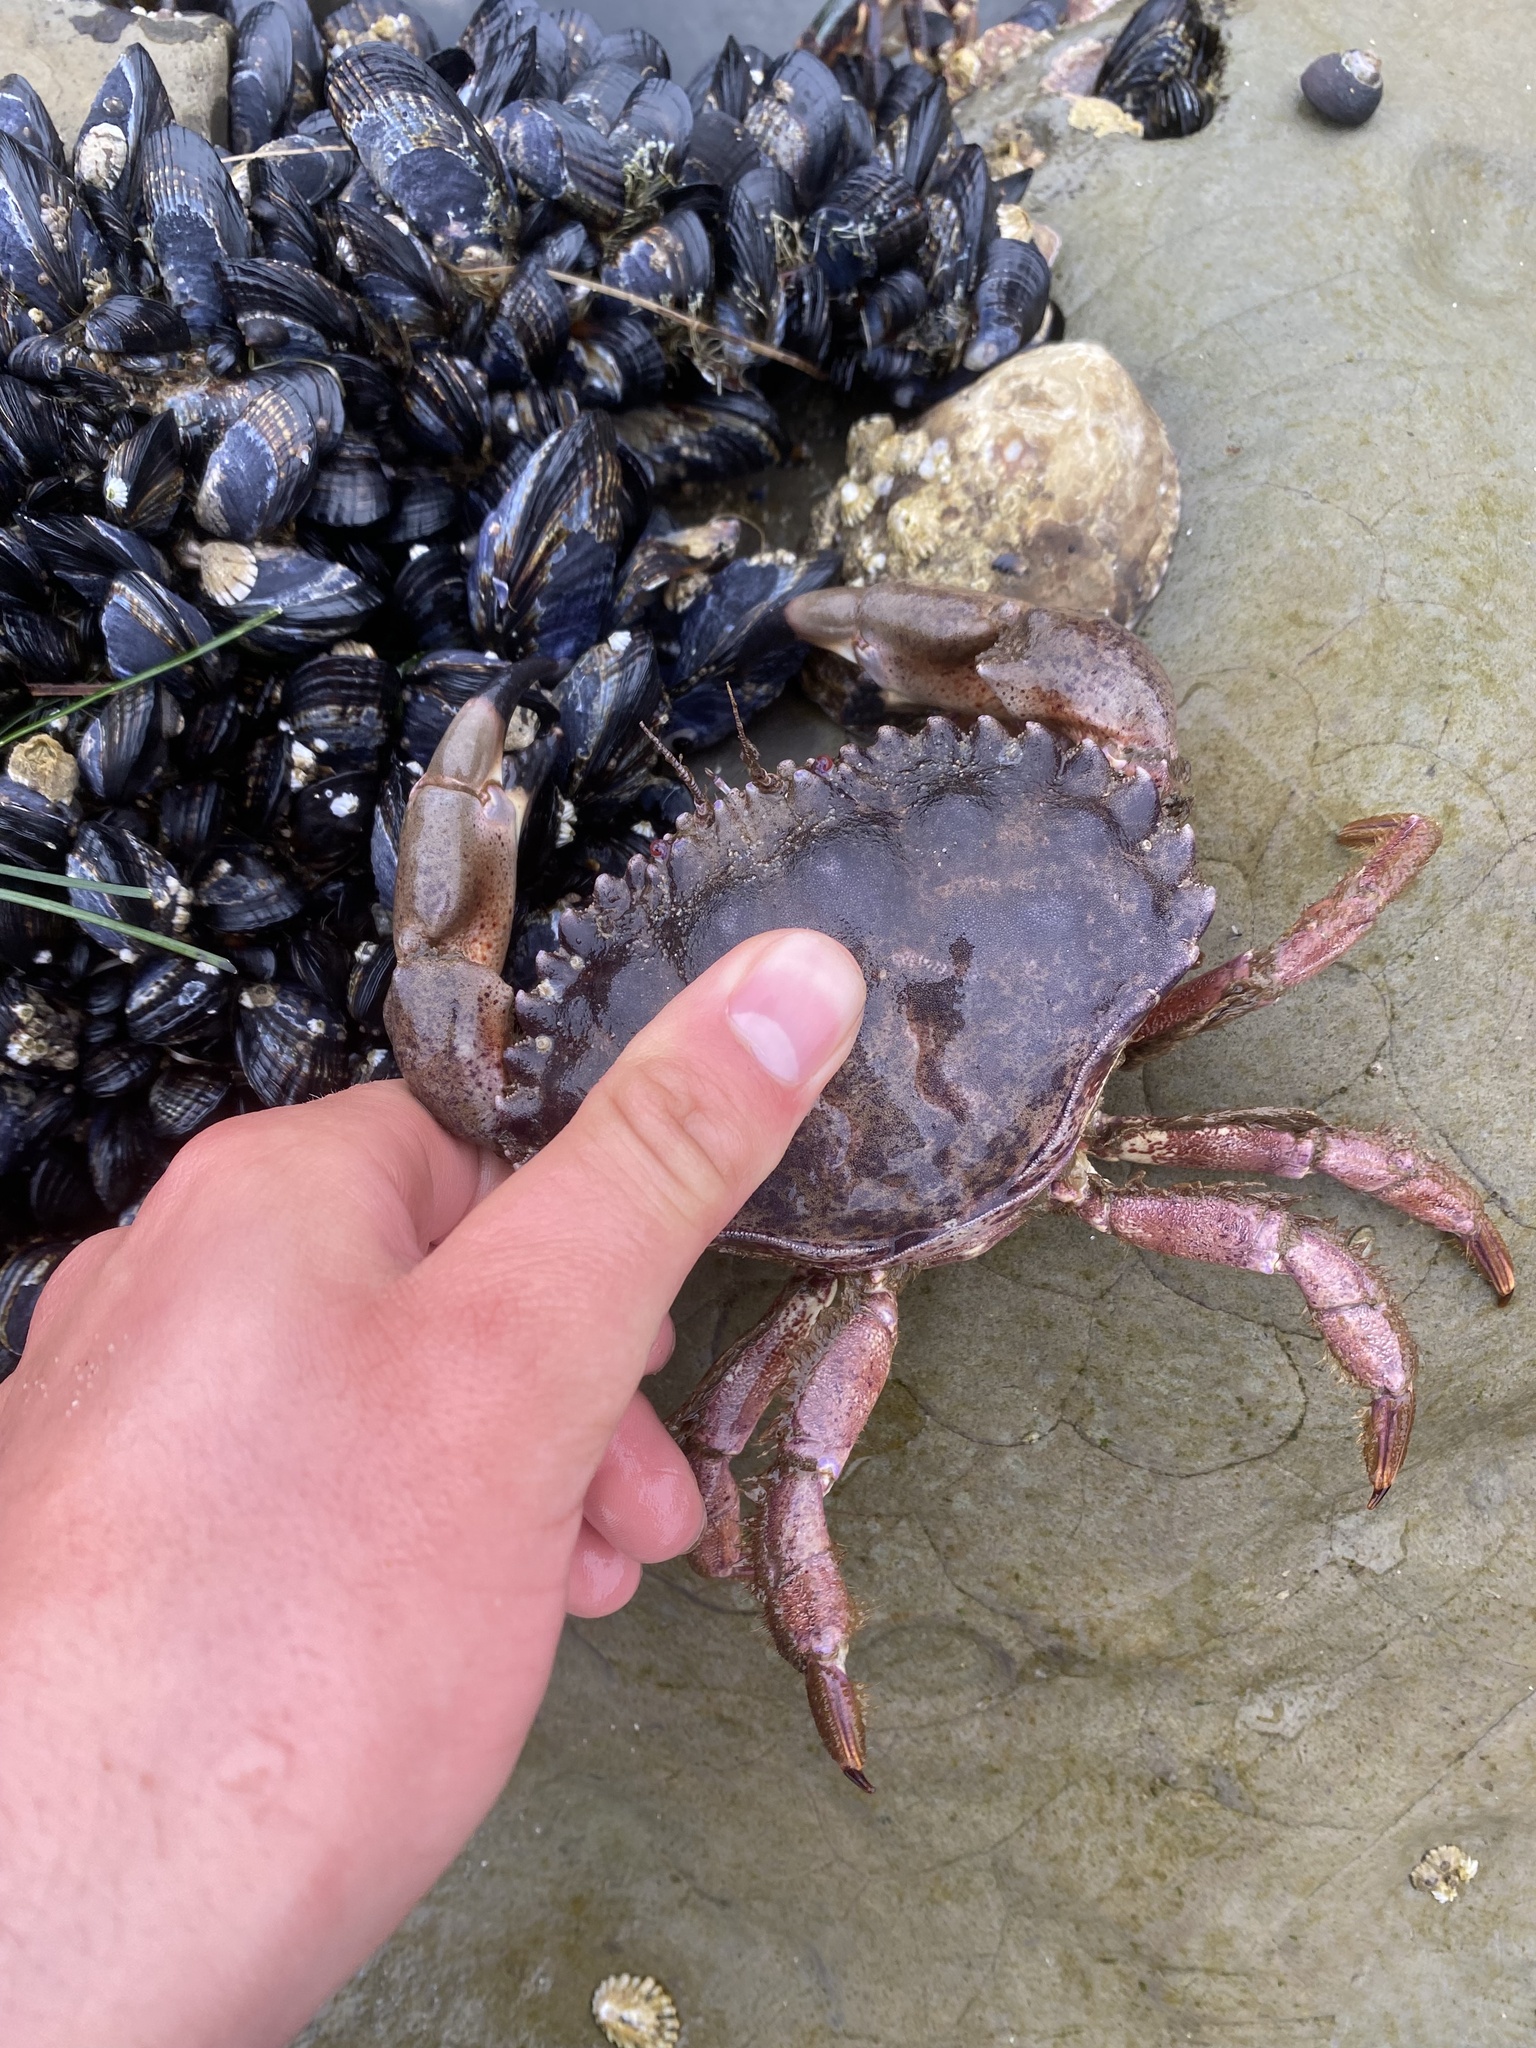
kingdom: Animalia
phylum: Arthropoda
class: Malacostraca
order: Decapoda
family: Cancridae
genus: Romaleon
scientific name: Romaleon antennarium
